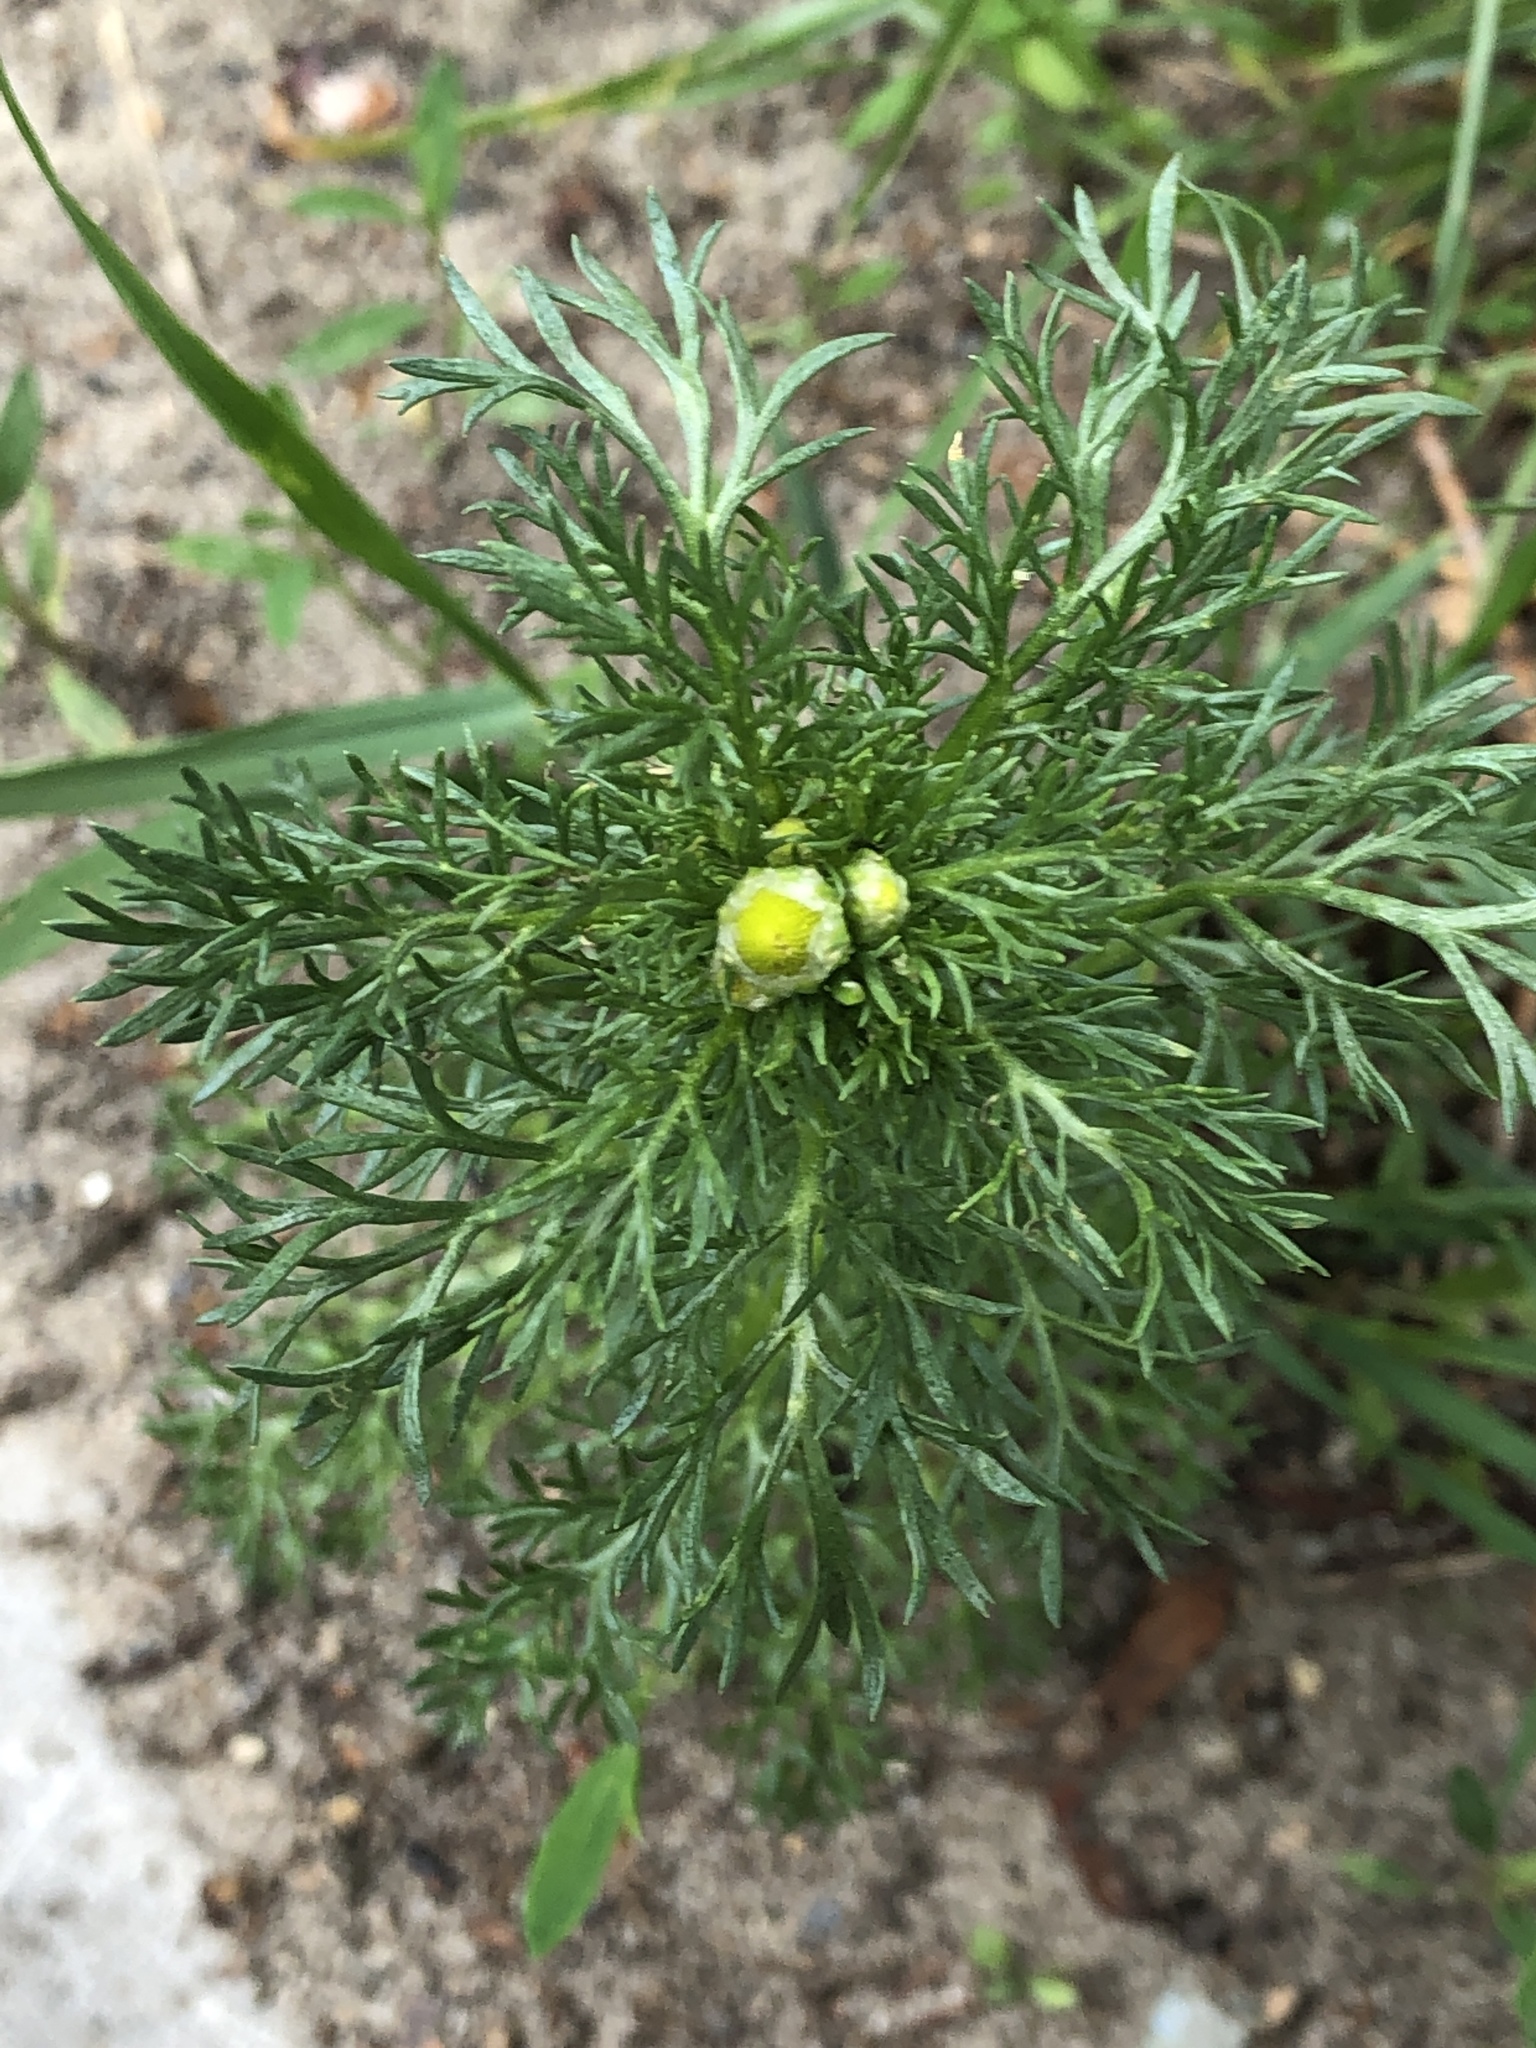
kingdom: Plantae
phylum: Tracheophyta
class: Magnoliopsida
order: Asterales
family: Asteraceae
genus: Matricaria
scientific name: Matricaria discoidea
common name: Disc mayweed
